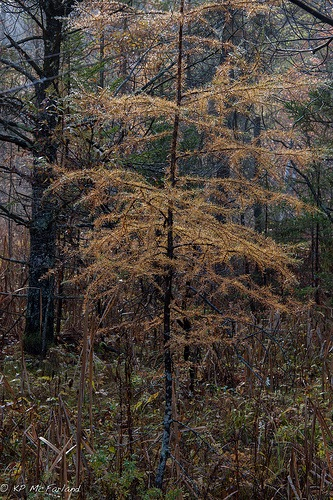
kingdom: Plantae
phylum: Tracheophyta
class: Pinopsida
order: Pinales
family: Pinaceae
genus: Larix
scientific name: Larix laricina
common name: American larch
